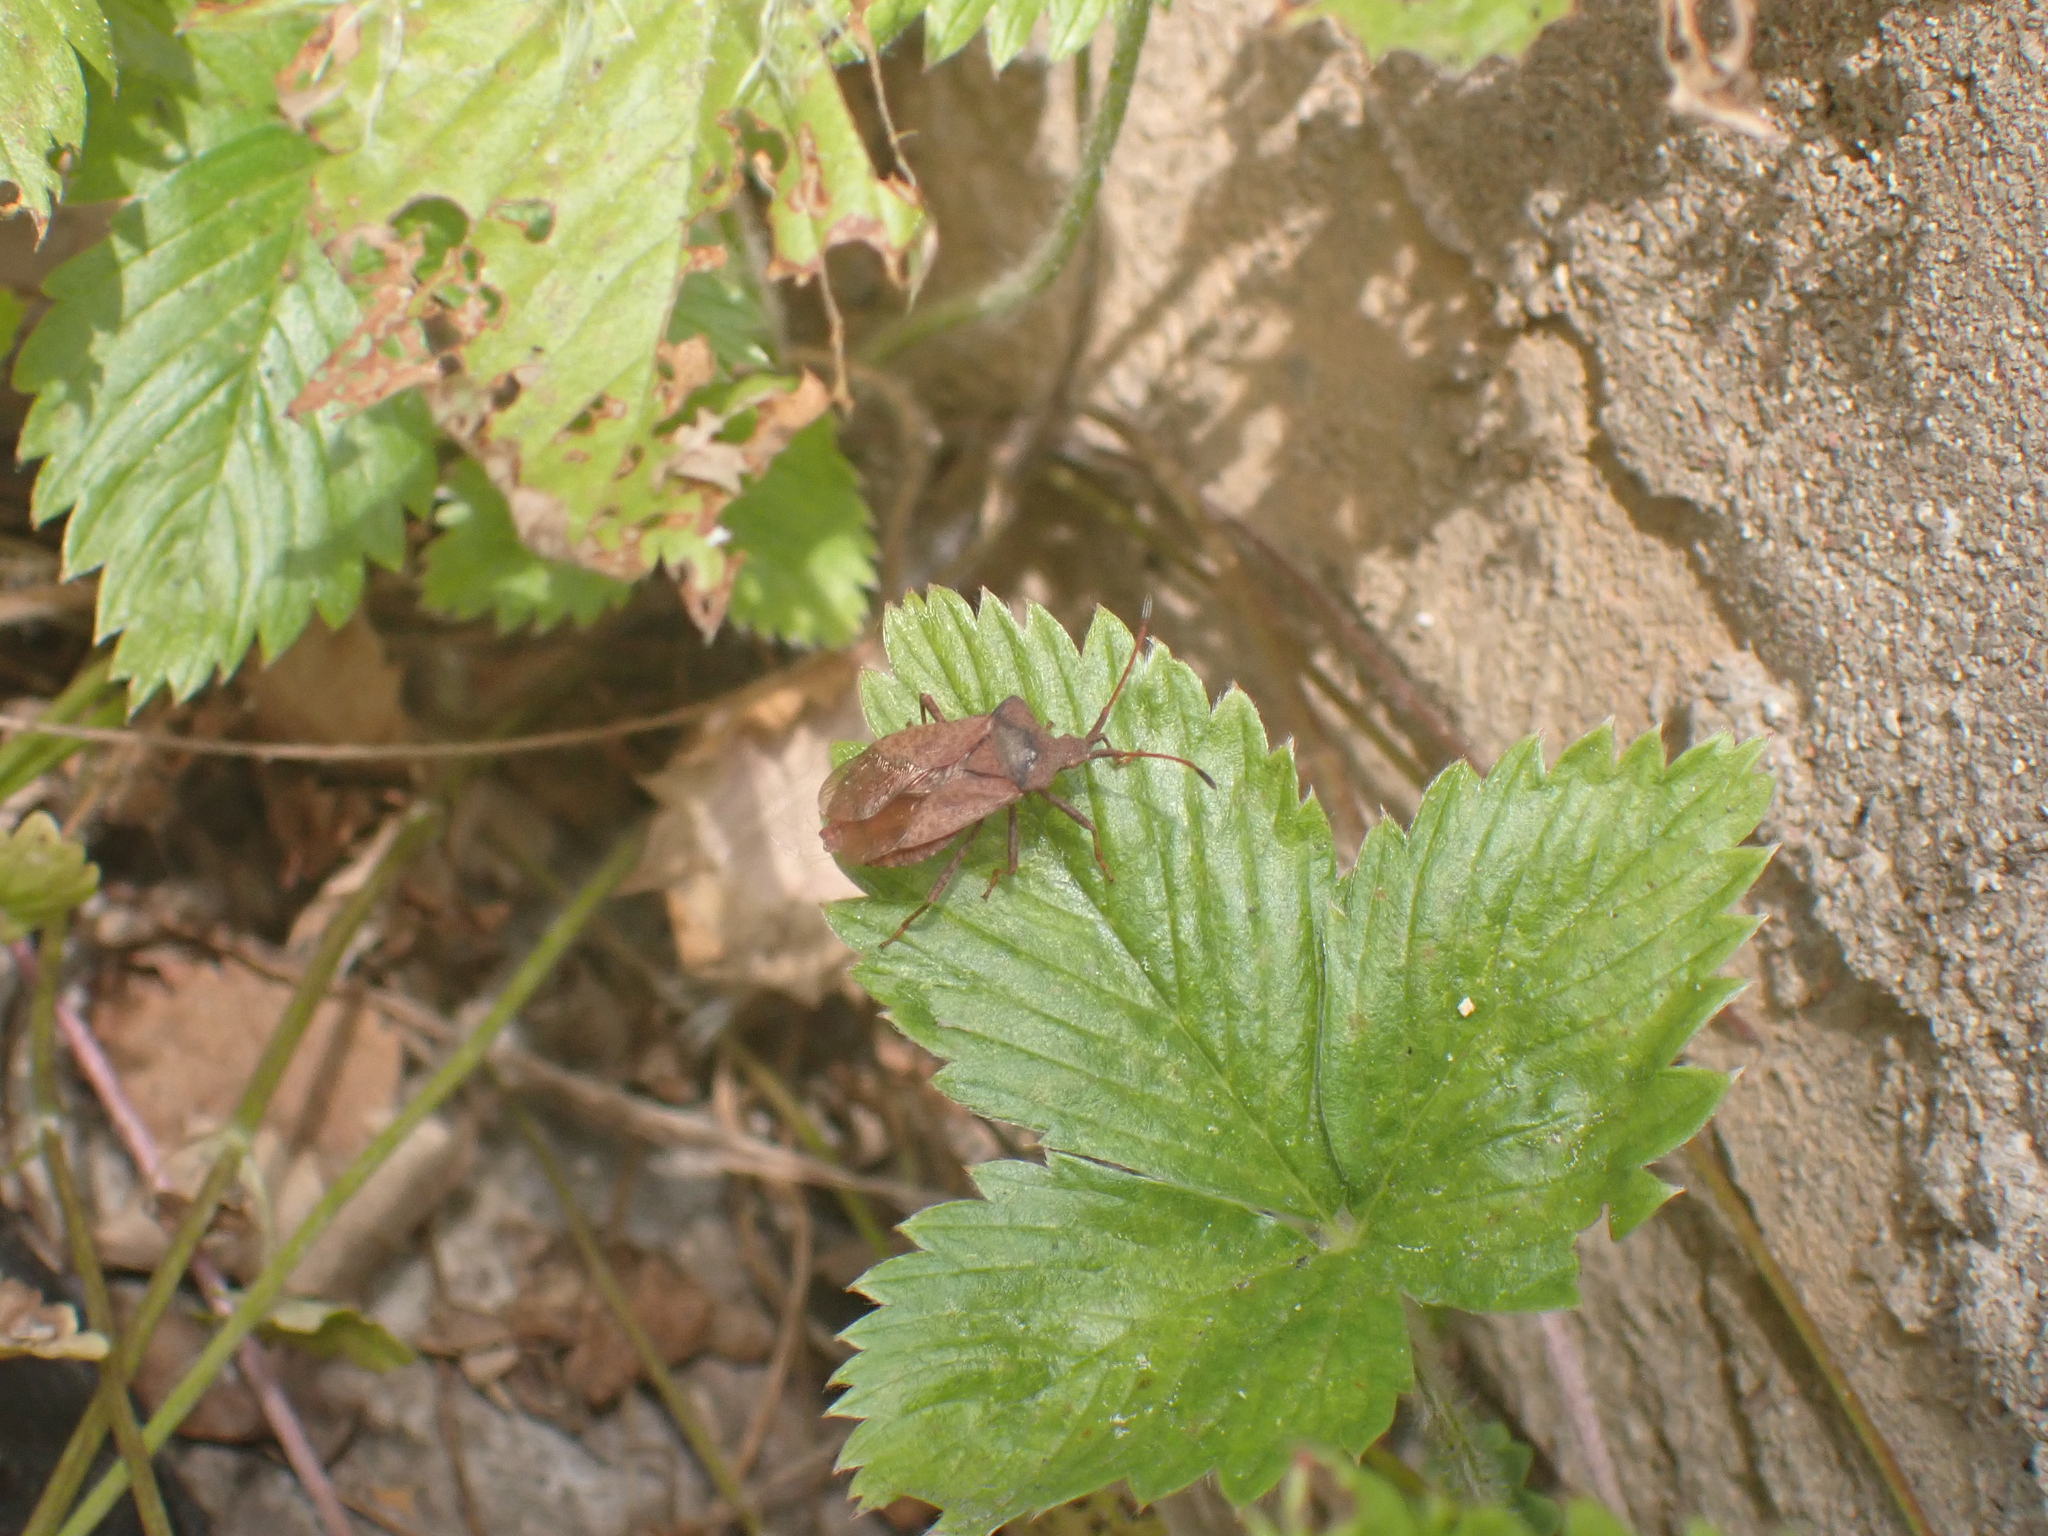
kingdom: Animalia
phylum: Arthropoda
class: Insecta
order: Hemiptera
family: Coreidae
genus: Coreus
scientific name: Coreus marginatus
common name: Dock bug
